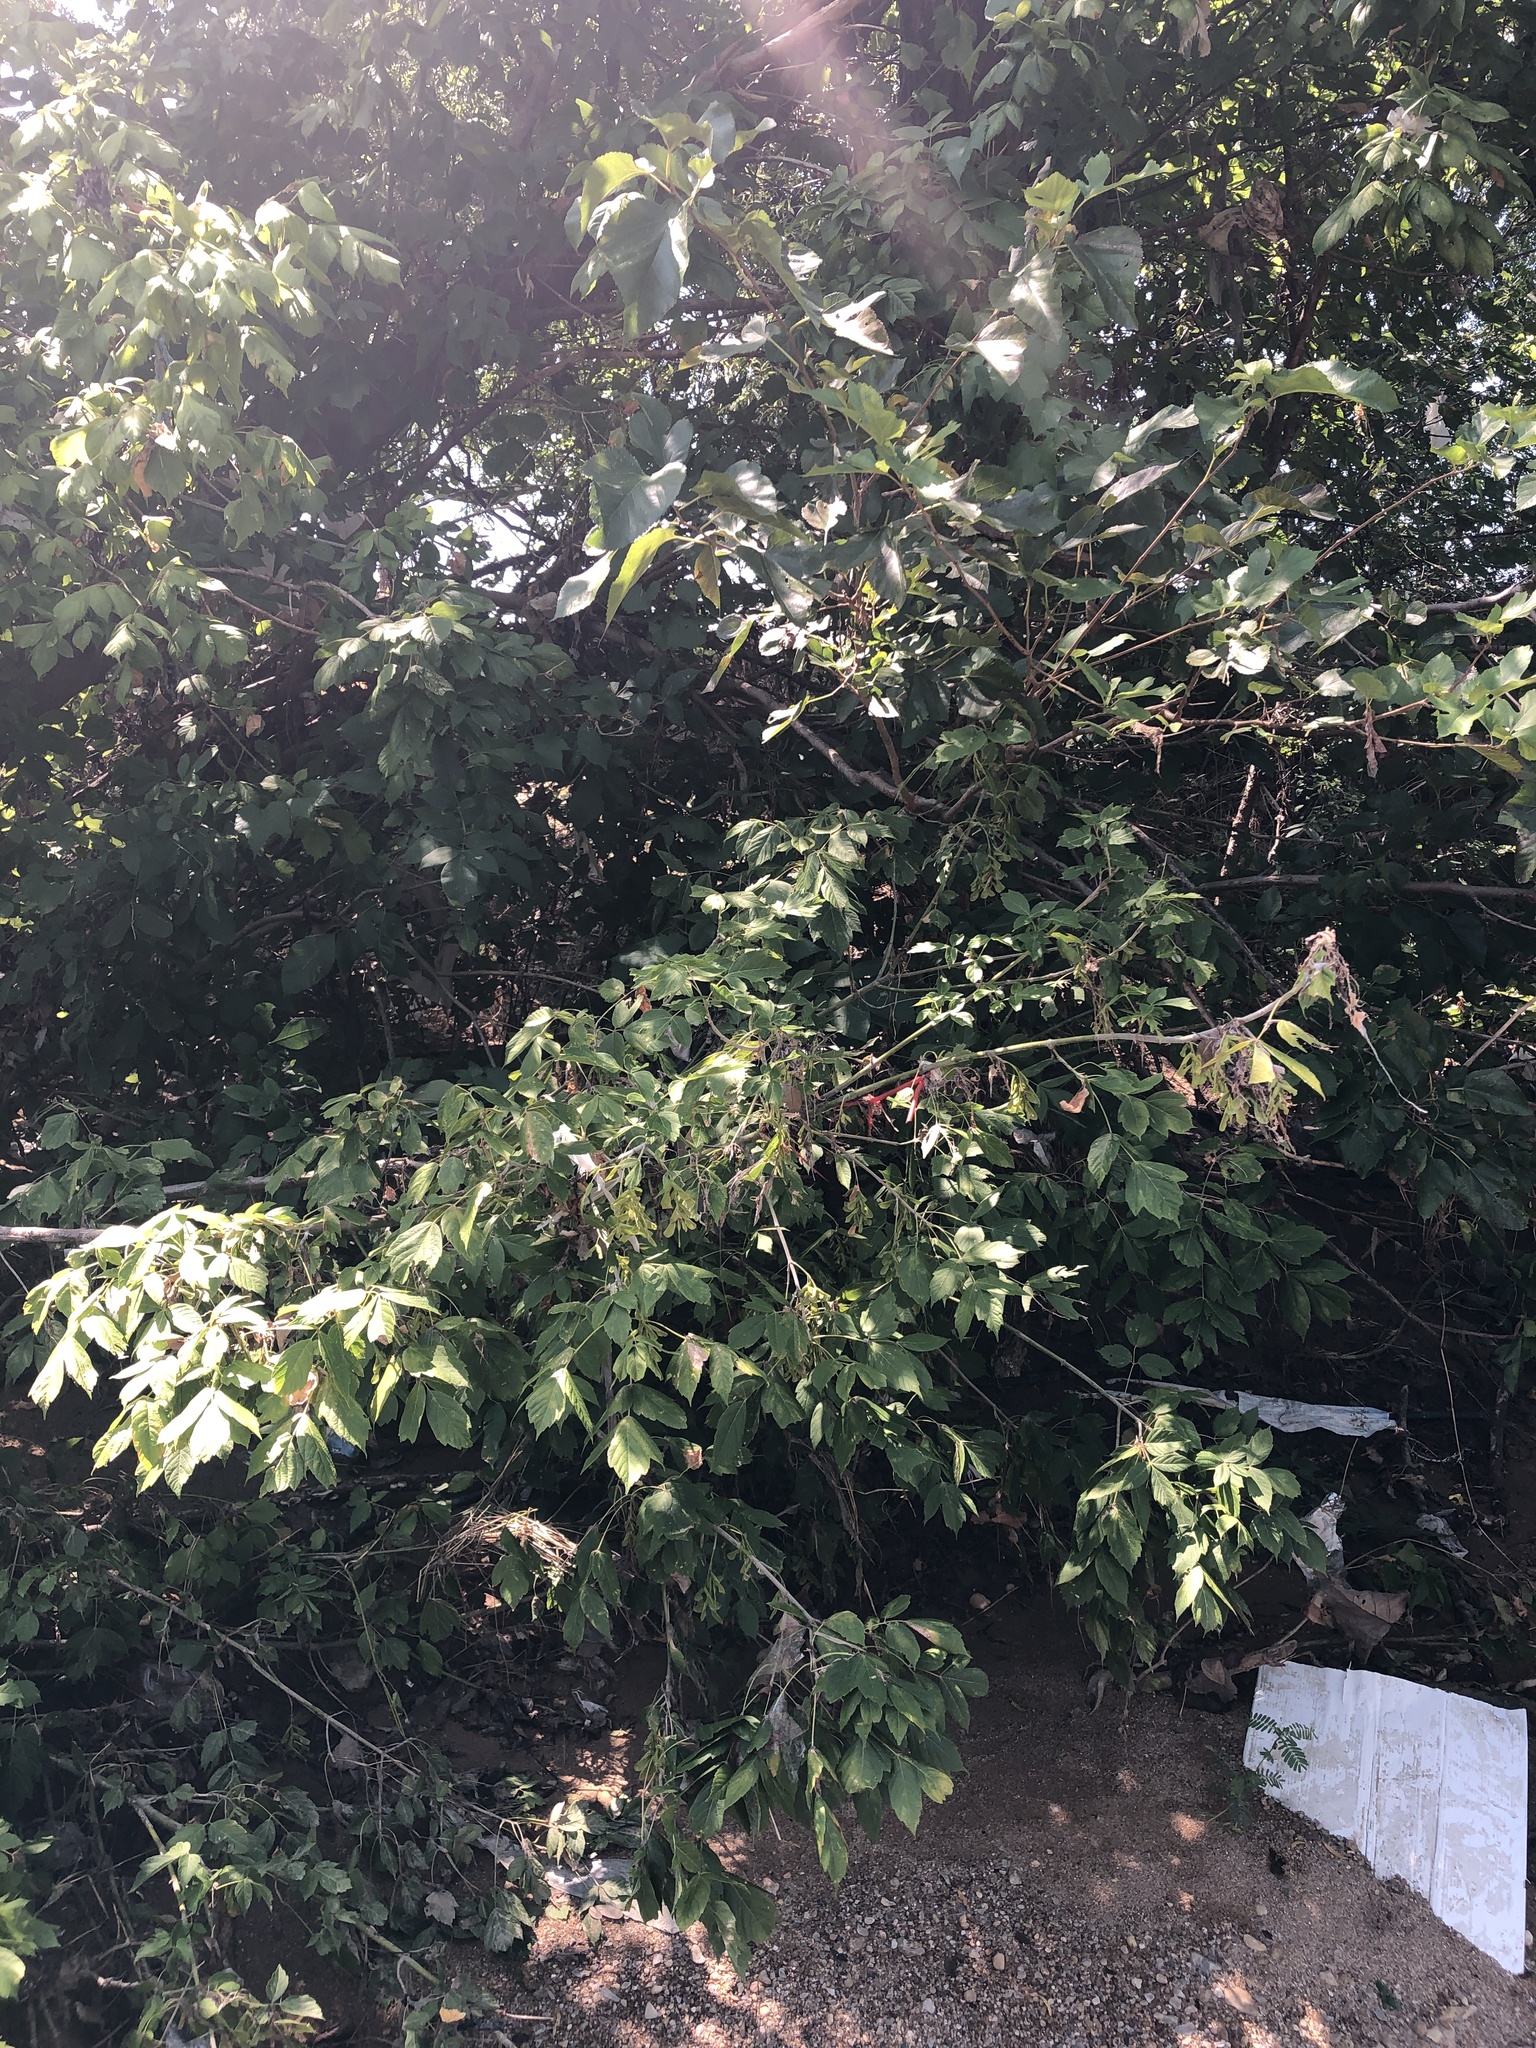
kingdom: Plantae
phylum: Tracheophyta
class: Magnoliopsida
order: Sapindales
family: Sapindaceae
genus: Acer
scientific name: Acer negundo
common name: Ashleaf maple
